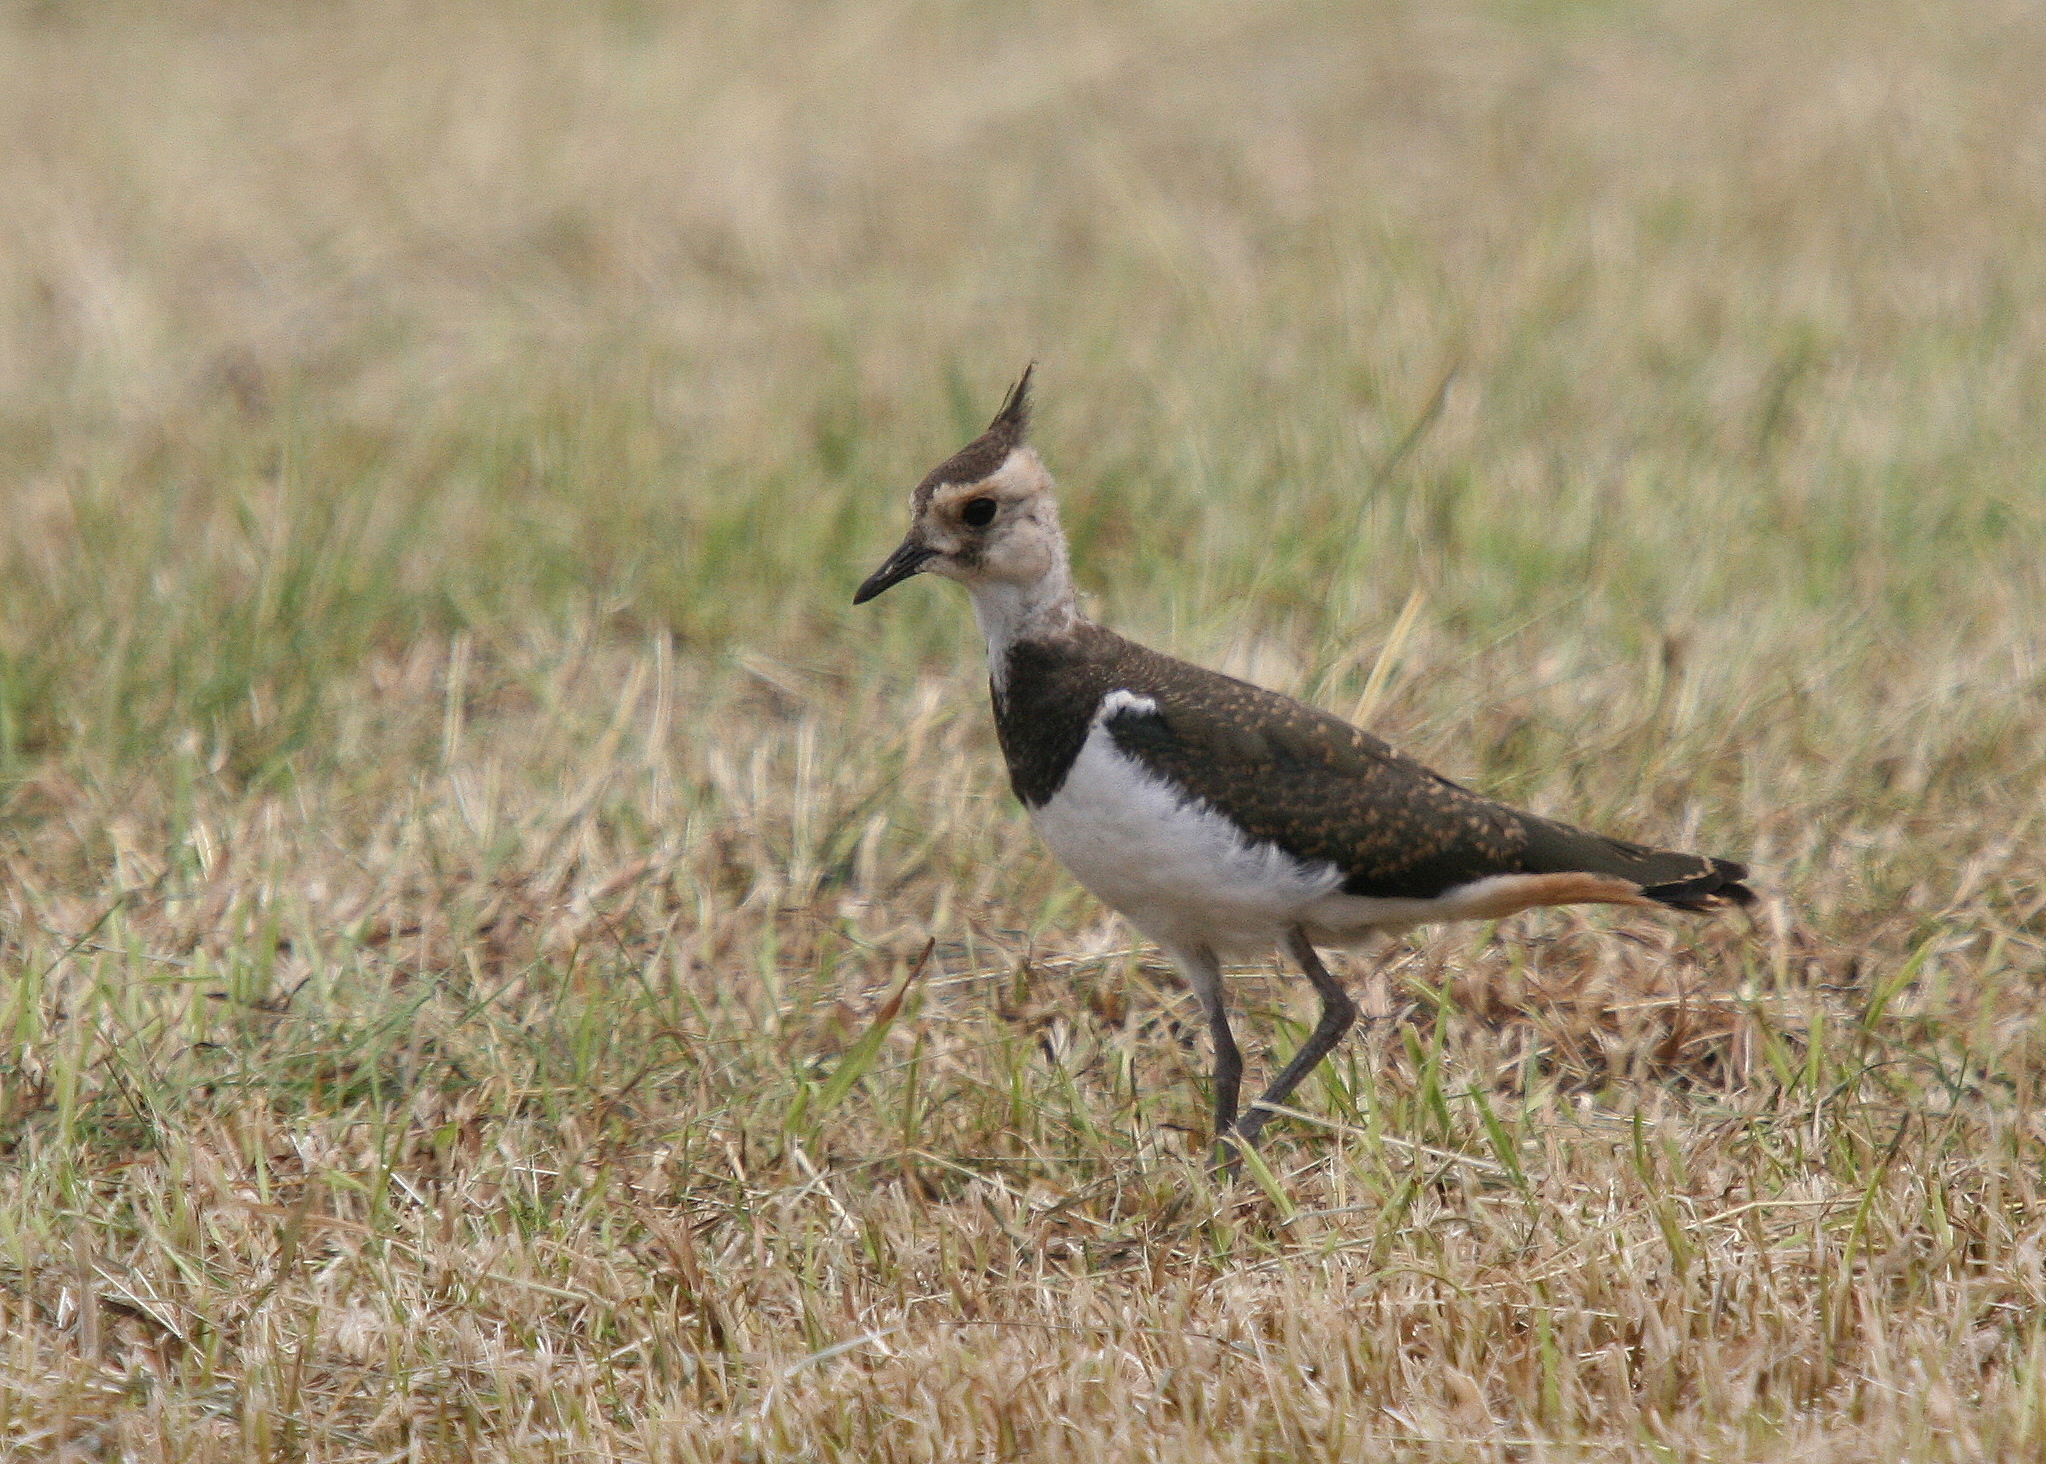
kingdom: Animalia
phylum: Chordata
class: Aves
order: Charadriiformes
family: Charadriidae
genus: Vanellus
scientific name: Vanellus vanellus
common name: Northern lapwing
